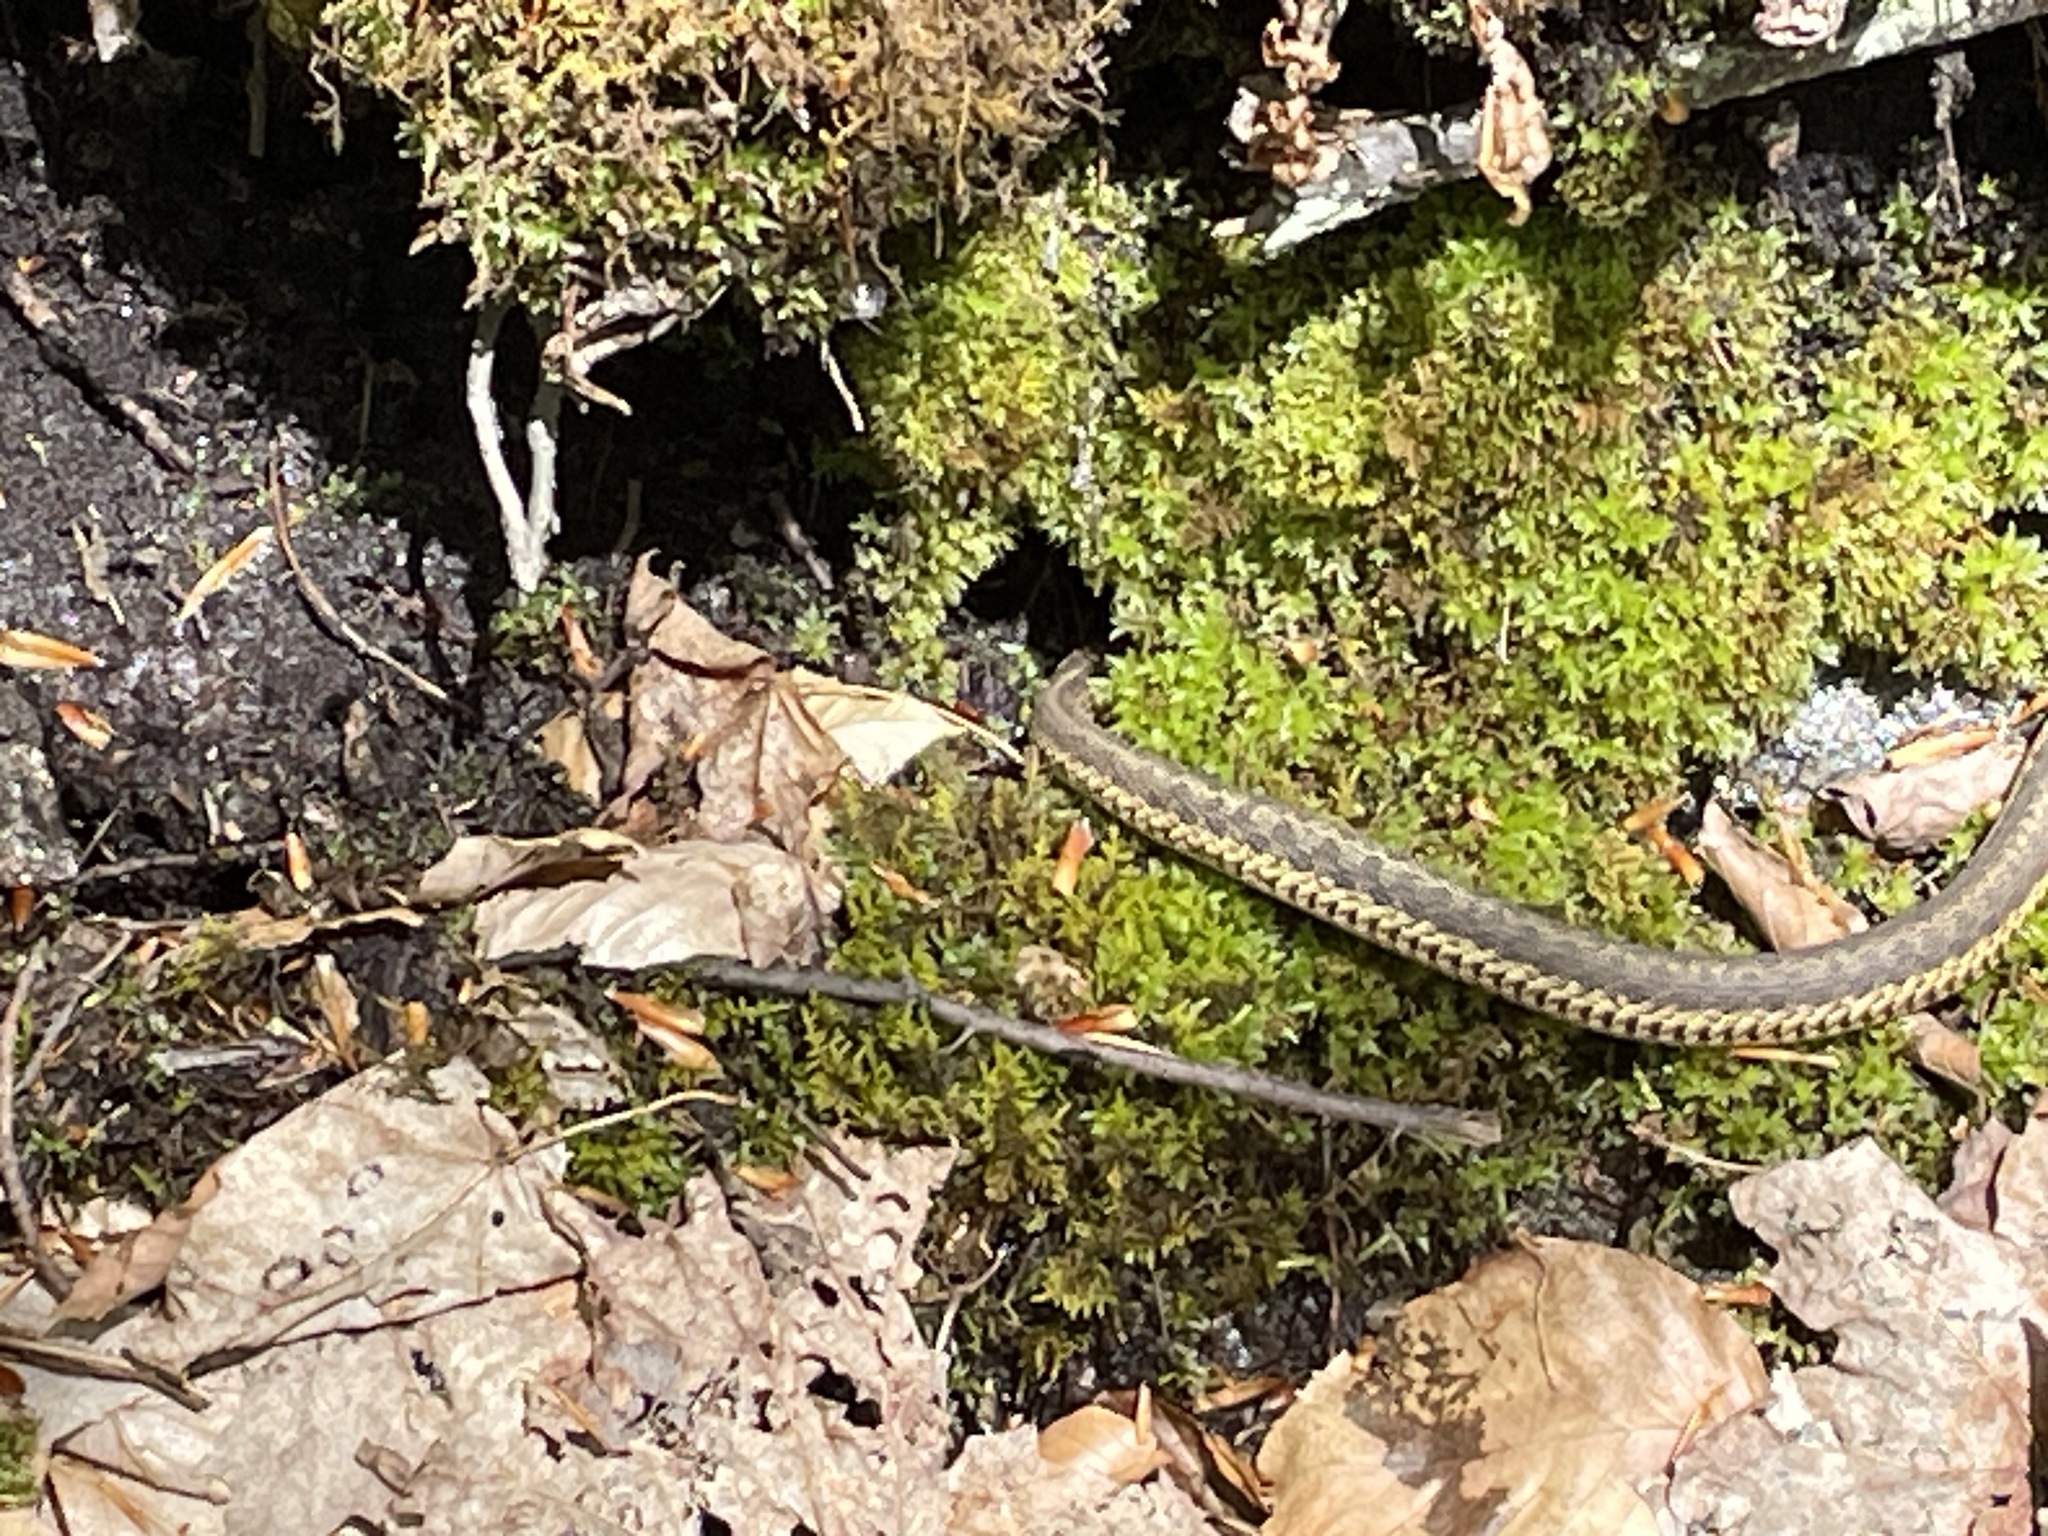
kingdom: Animalia
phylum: Chordata
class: Squamata
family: Colubridae
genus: Thamnophis
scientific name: Thamnophis sirtalis
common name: Common garter snake
